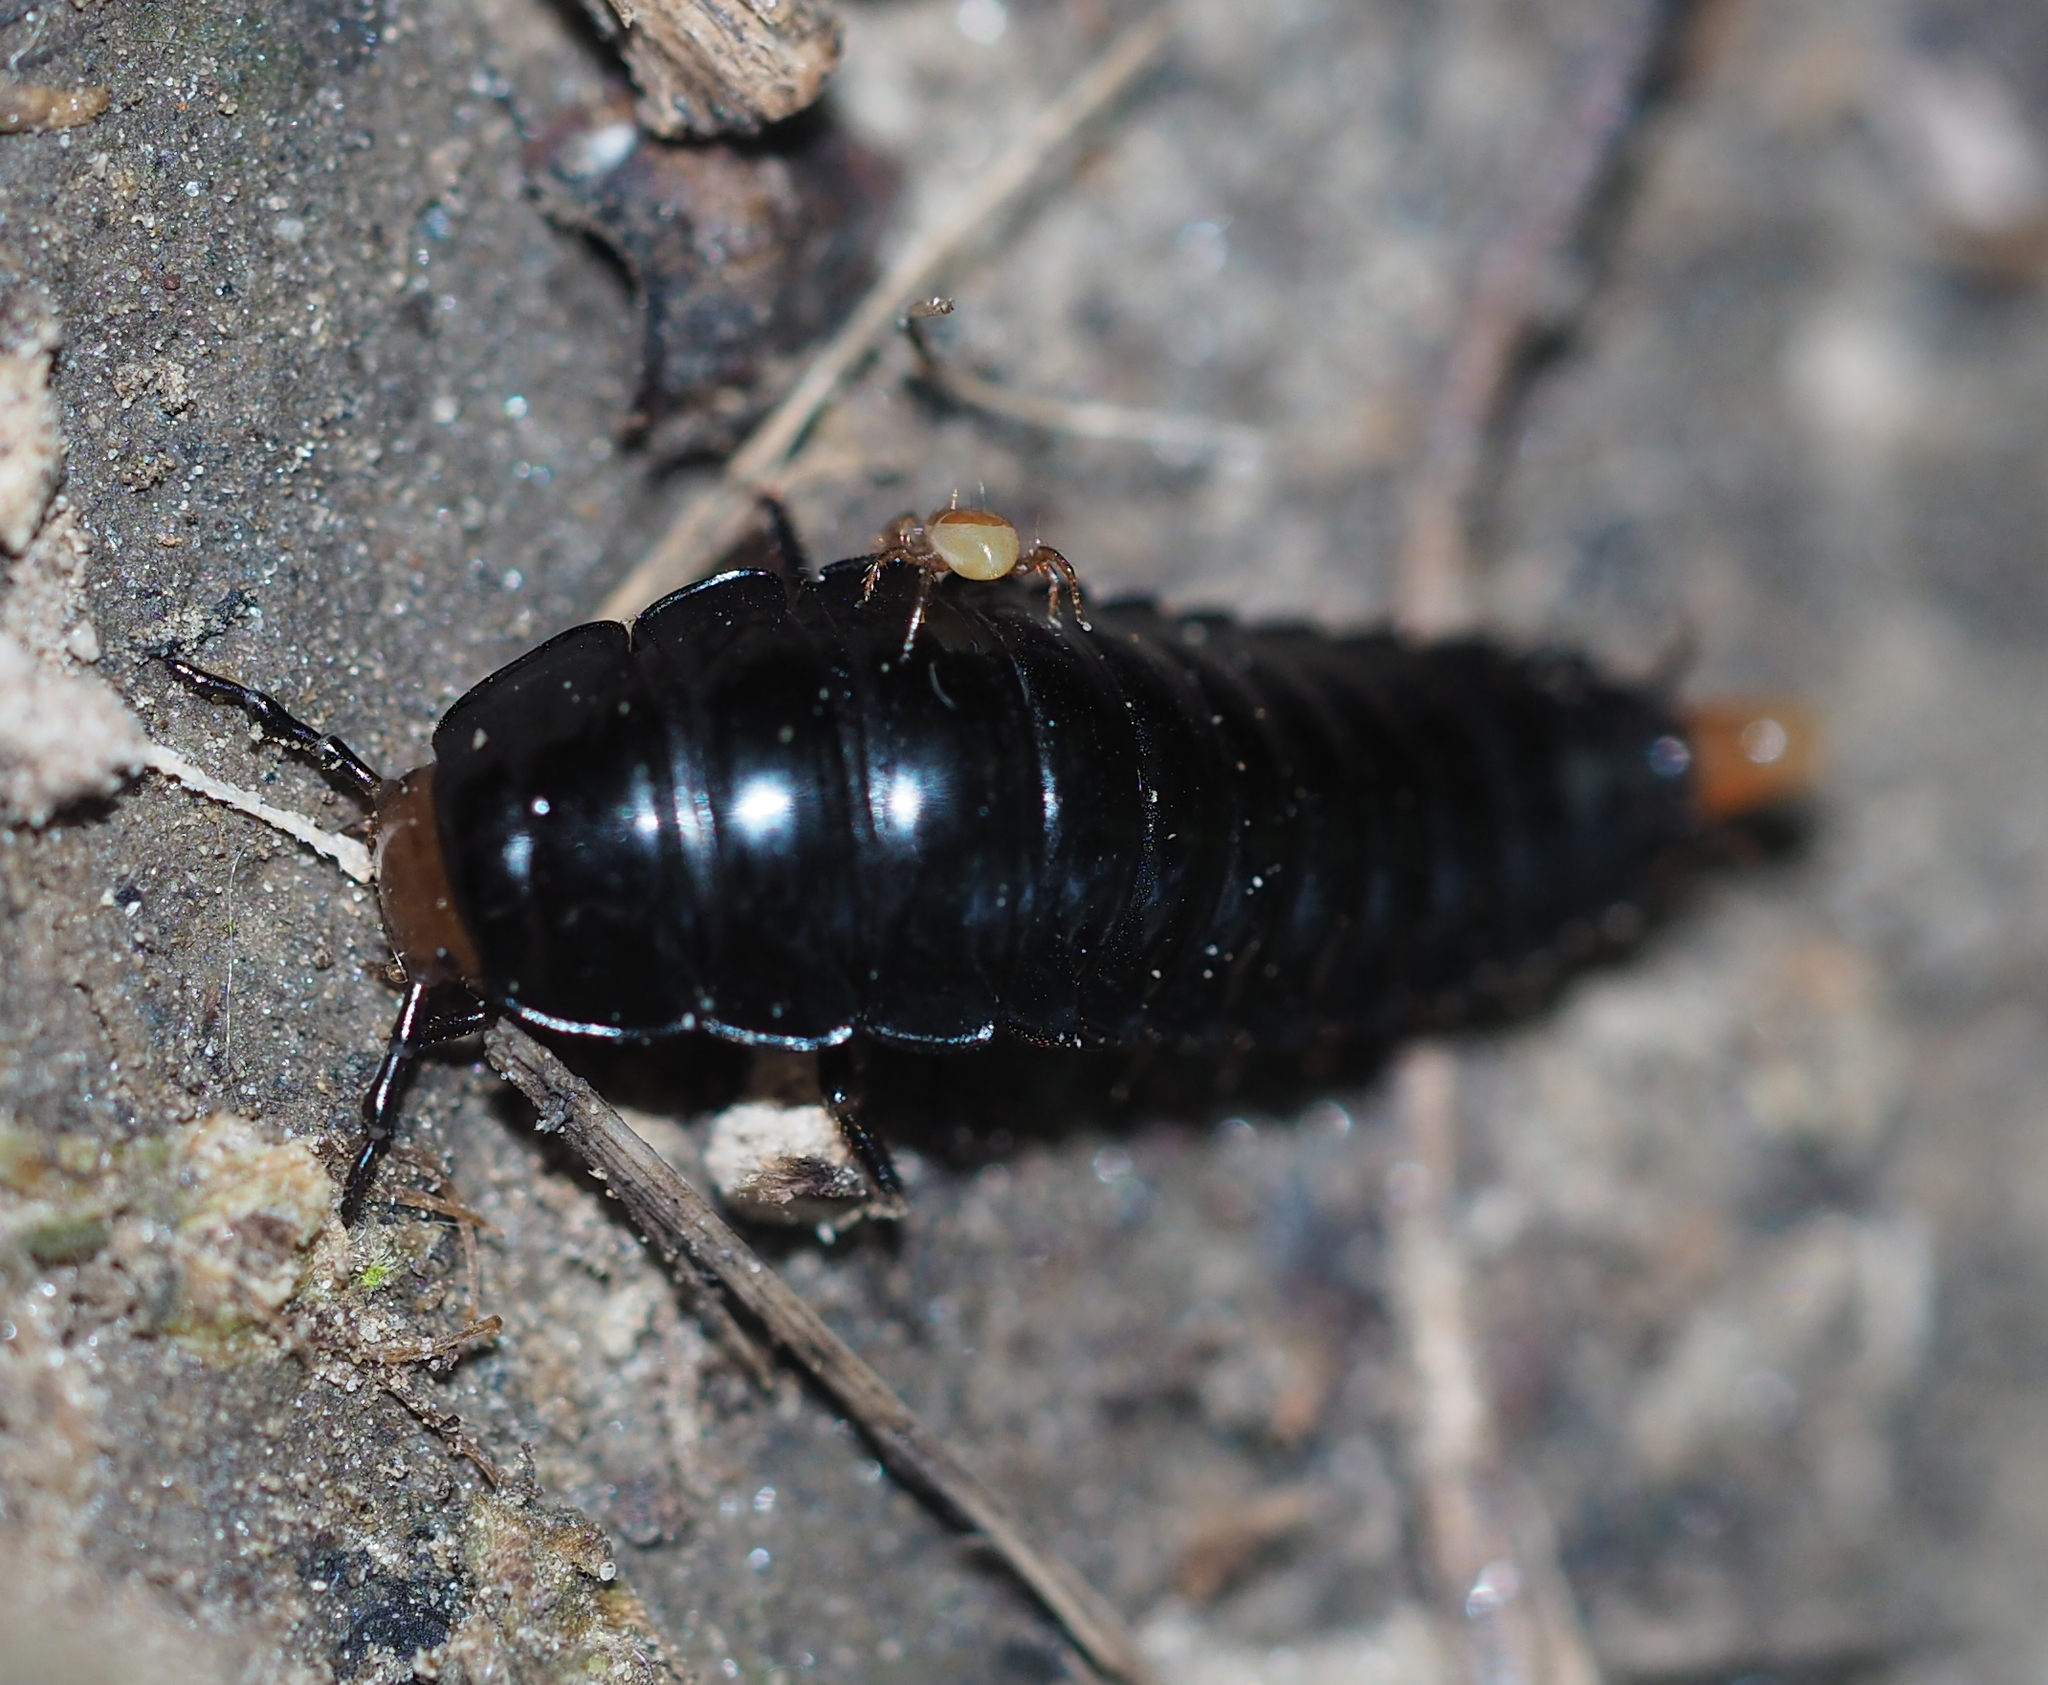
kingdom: Animalia
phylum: Arthropoda
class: Insecta
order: Coleoptera
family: Staphylinidae
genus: Dendroxena
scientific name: Dendroxena quadrimaculata
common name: Carrion beetle
